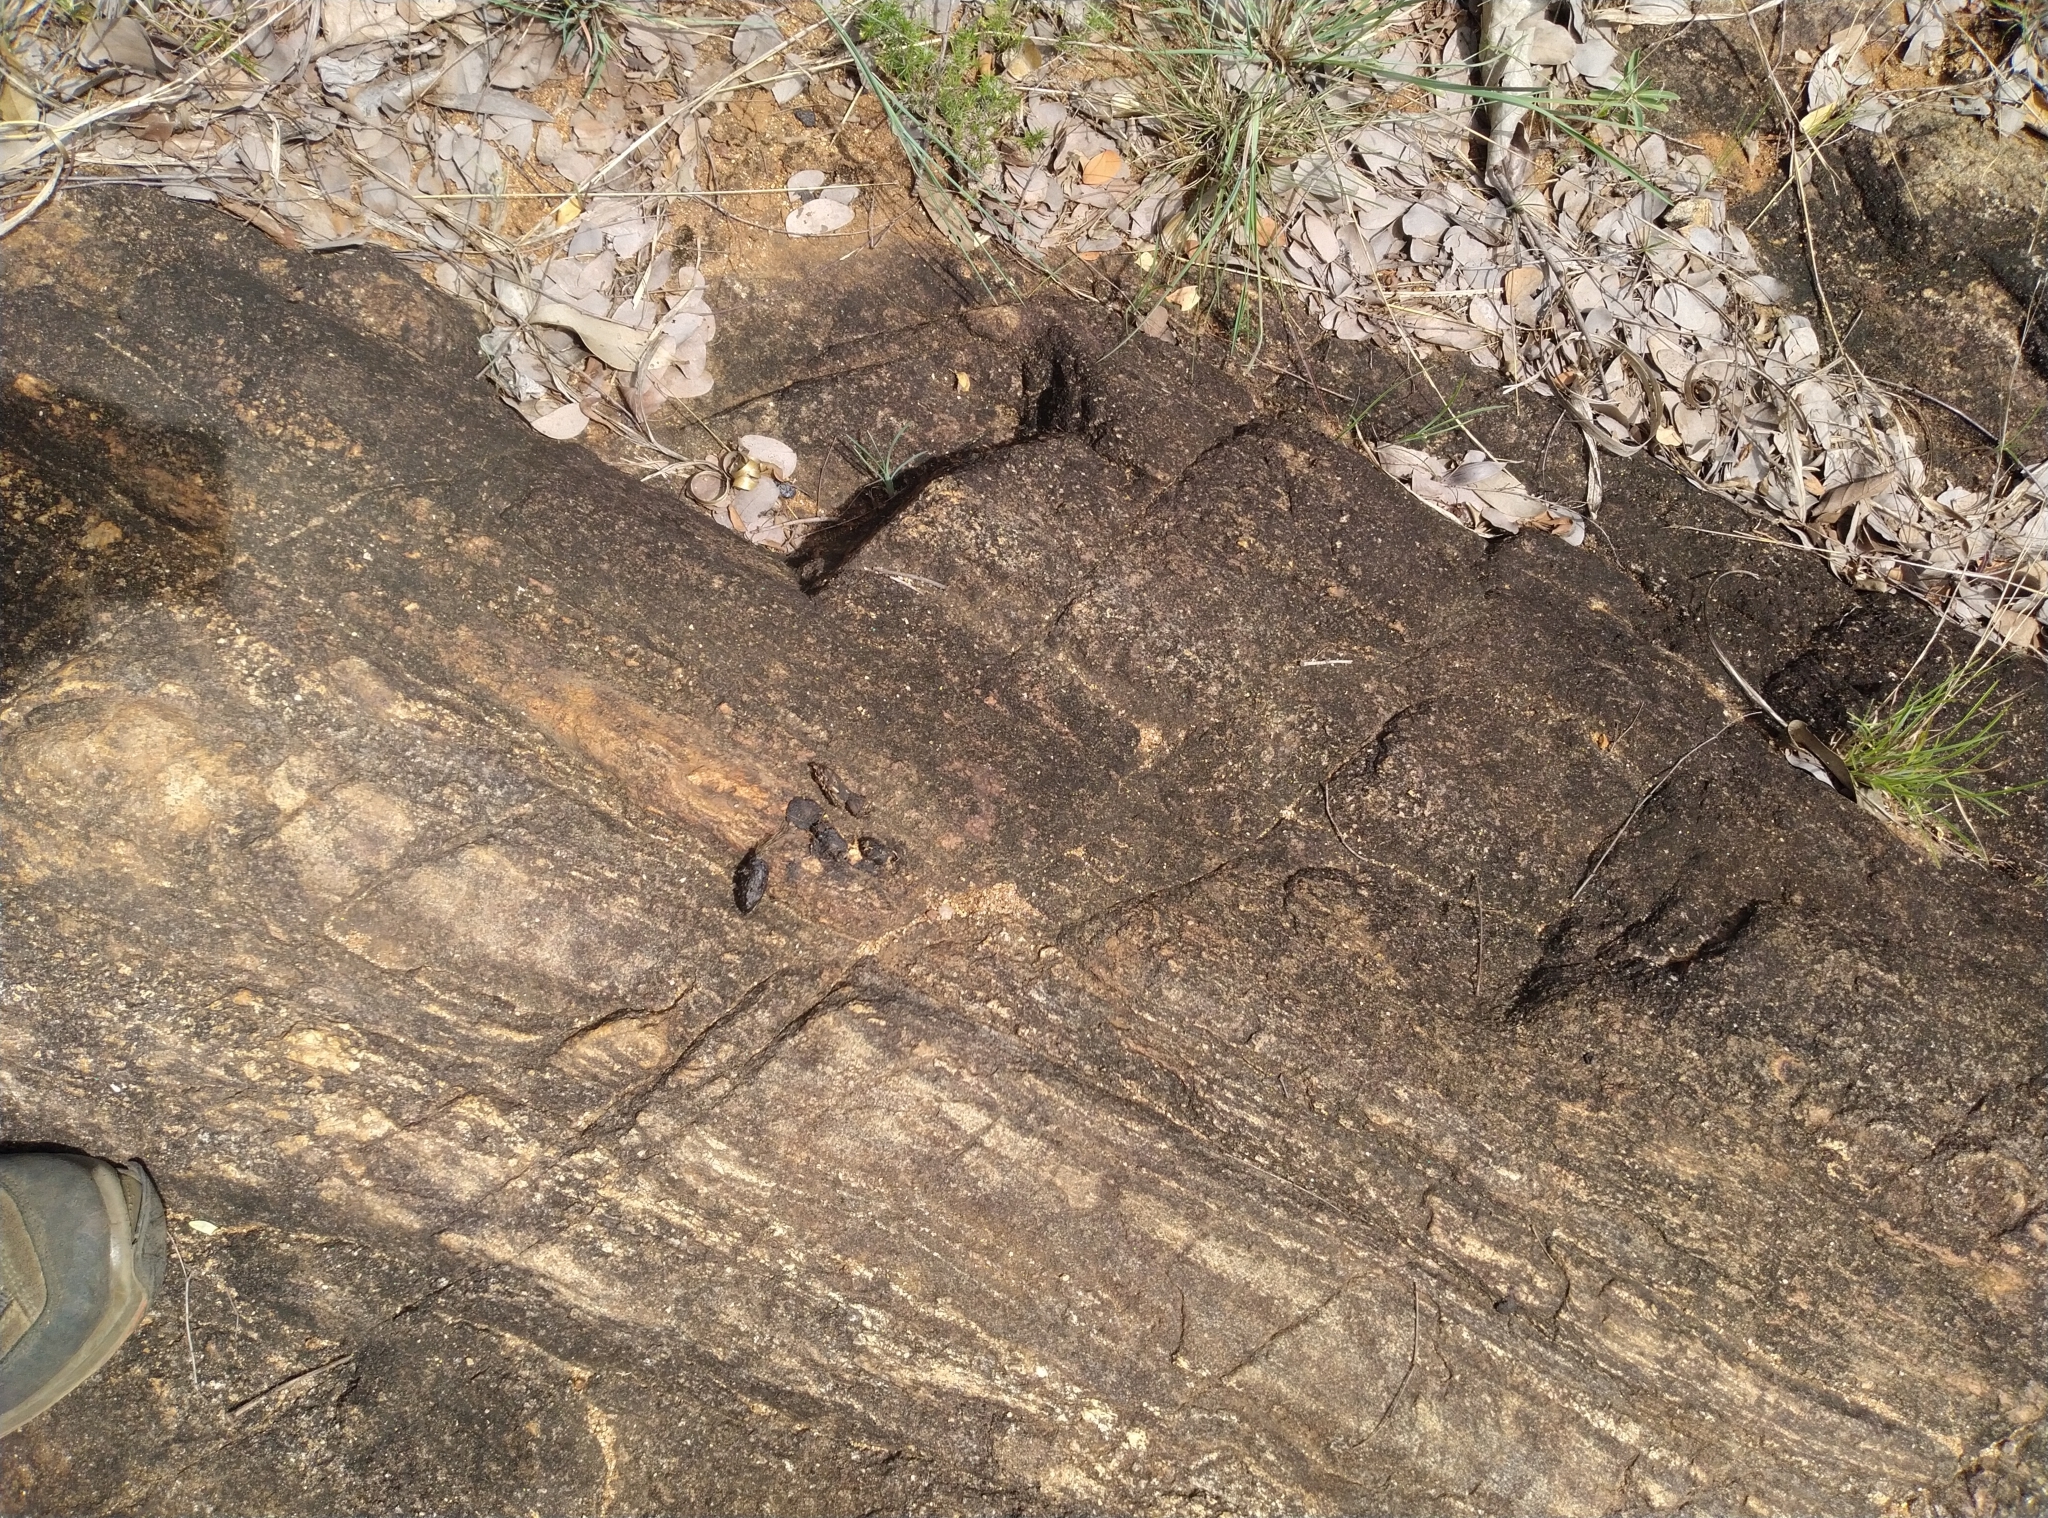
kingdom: Animalia
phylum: Chordata
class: Mammalia
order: Rodentia
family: Hystricidae
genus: Hystrix
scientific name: Hystrix indica
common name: Indian crested porcupine
